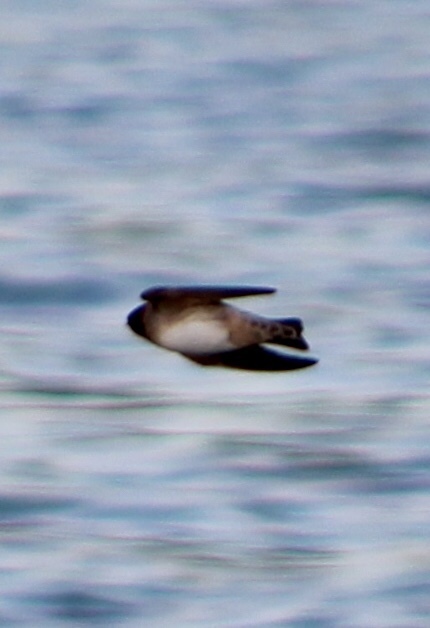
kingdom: Animalia
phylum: Chordata
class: Aves
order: Passeriformes
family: Hirundinidae
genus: Stelgidopteryx
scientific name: Stelgidopteryx serripennis
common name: Northern rough-winged swallow
